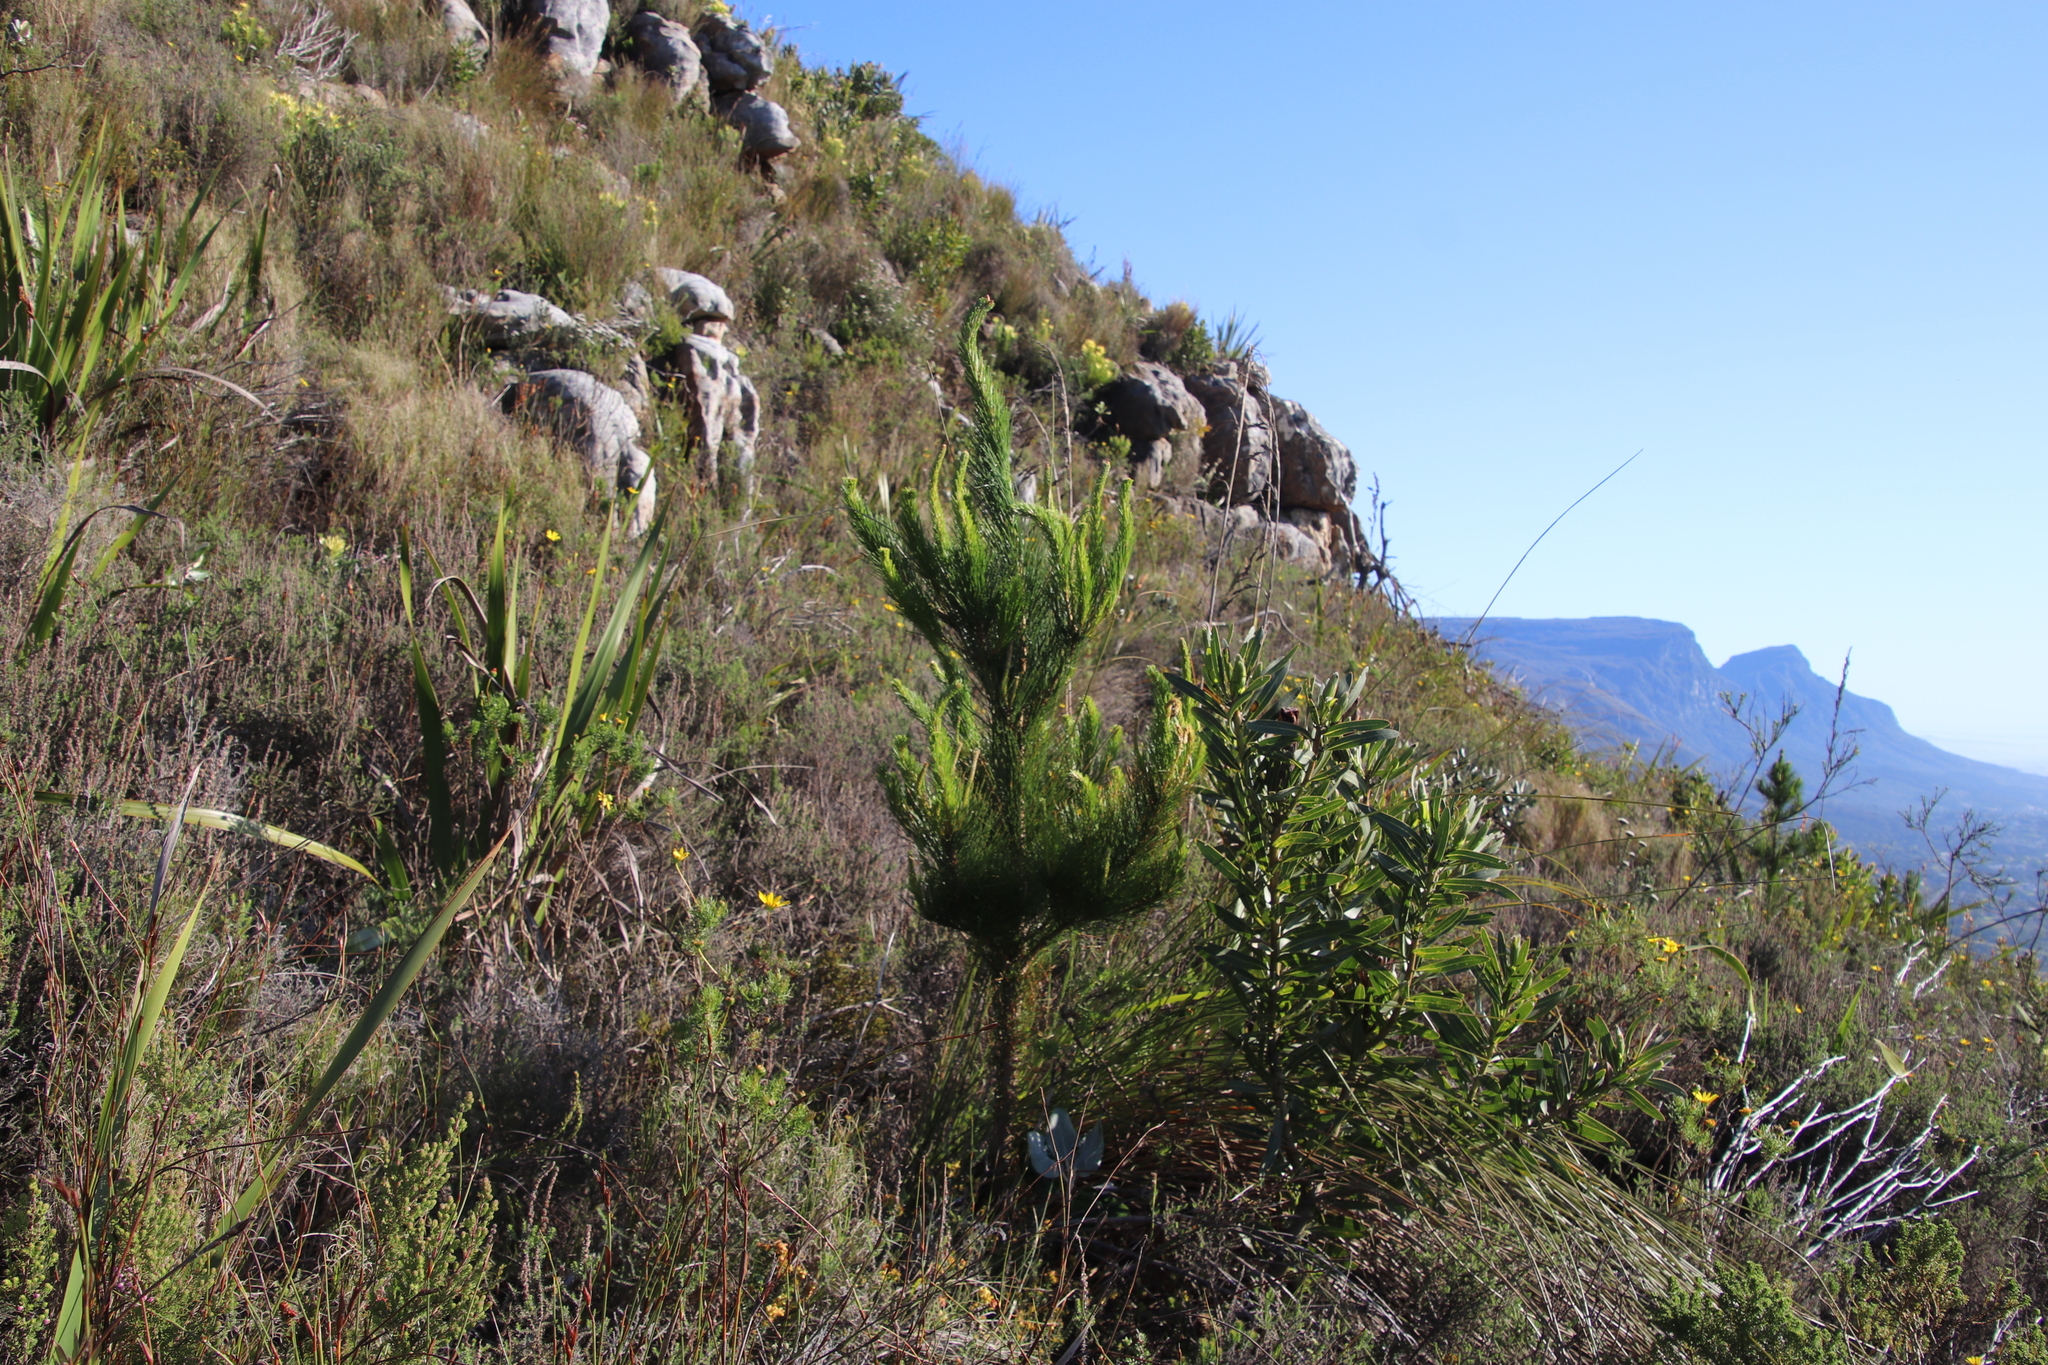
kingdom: Plantae
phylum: Tracheophyta
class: Pinopsida
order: Pinales
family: Pinaceae
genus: Pinus
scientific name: Pinus radiata
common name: Monterey pine
